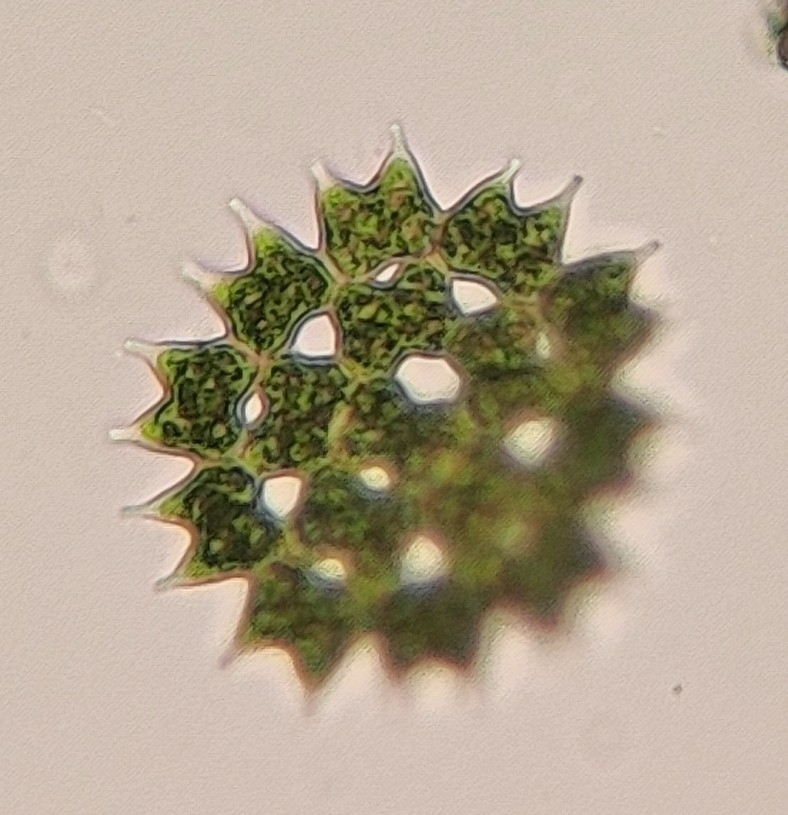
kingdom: Plantae
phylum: Chlorophyta
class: Chlorophyceae
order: Sphaeropleales
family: Hydrodictyaceae
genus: Pediastrum
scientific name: Pediastrum duplex
